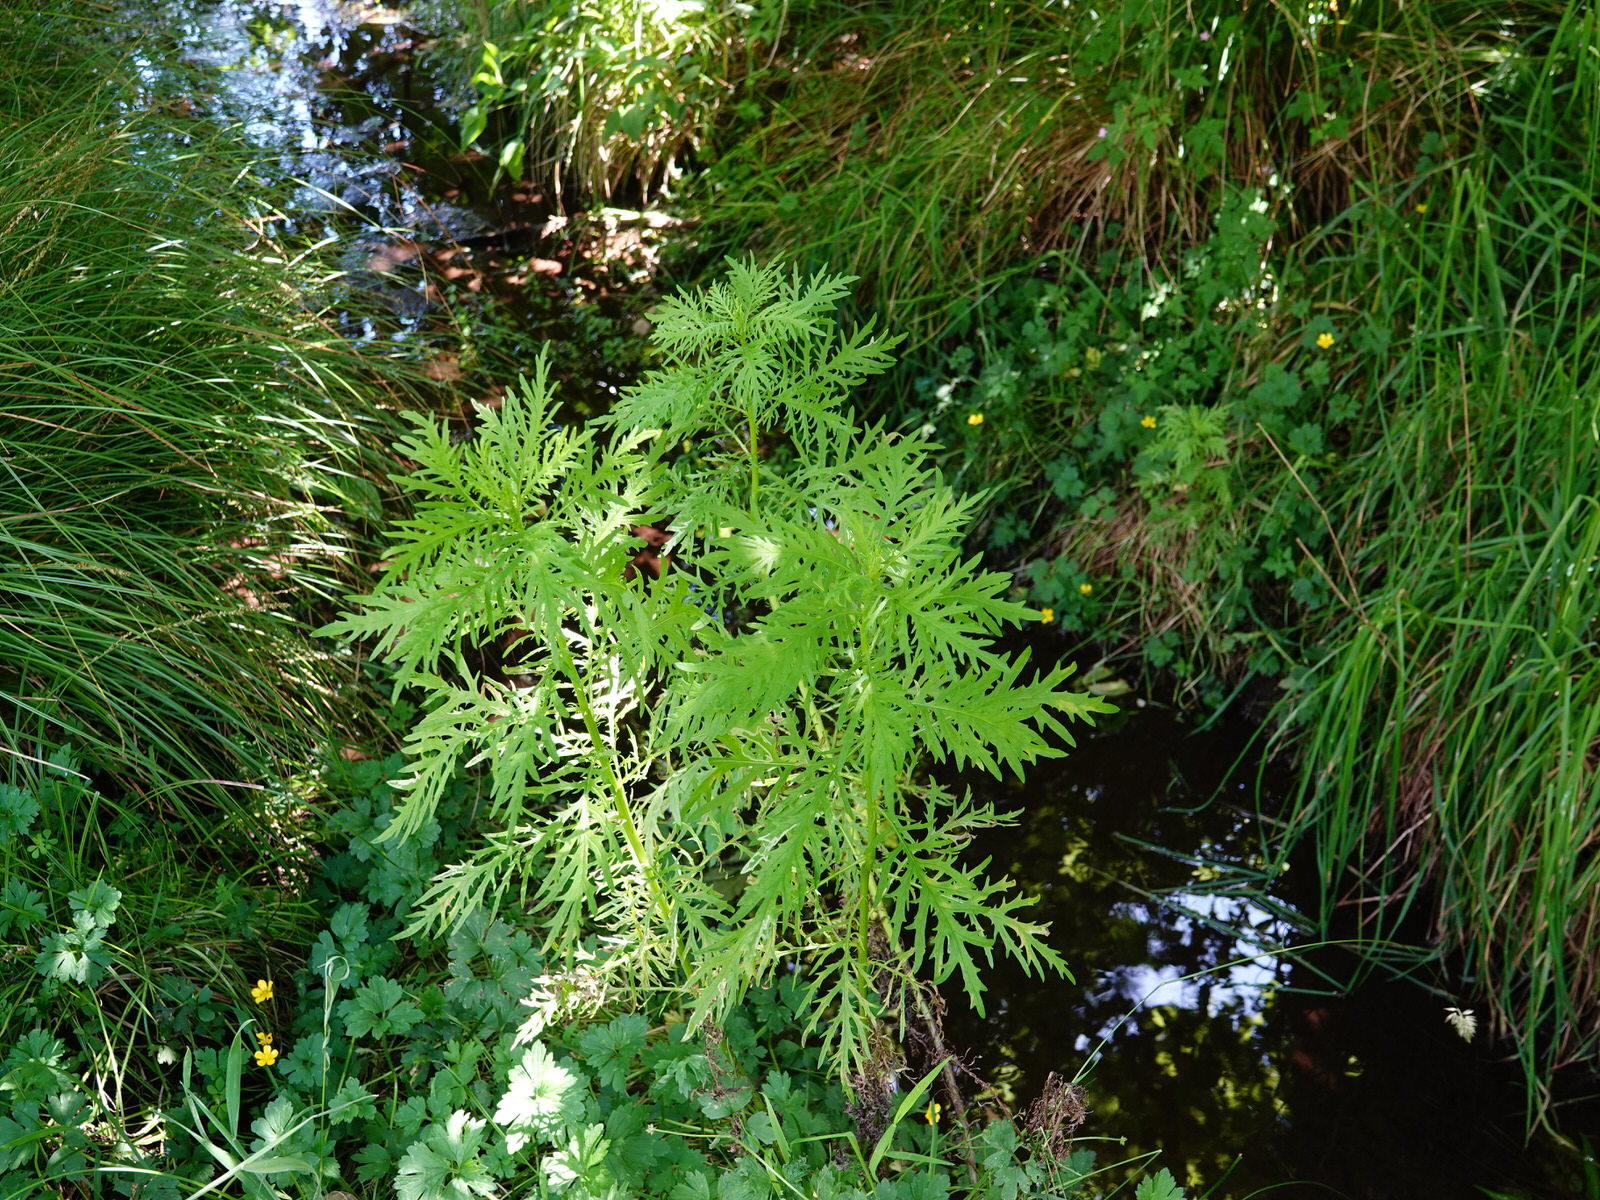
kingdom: Plantae
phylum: Tracheophyta
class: Magnoliopsida
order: Asterales
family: Asteraceae
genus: Senecio
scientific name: Senecio bipinnatisectus
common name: Australian fireweed
